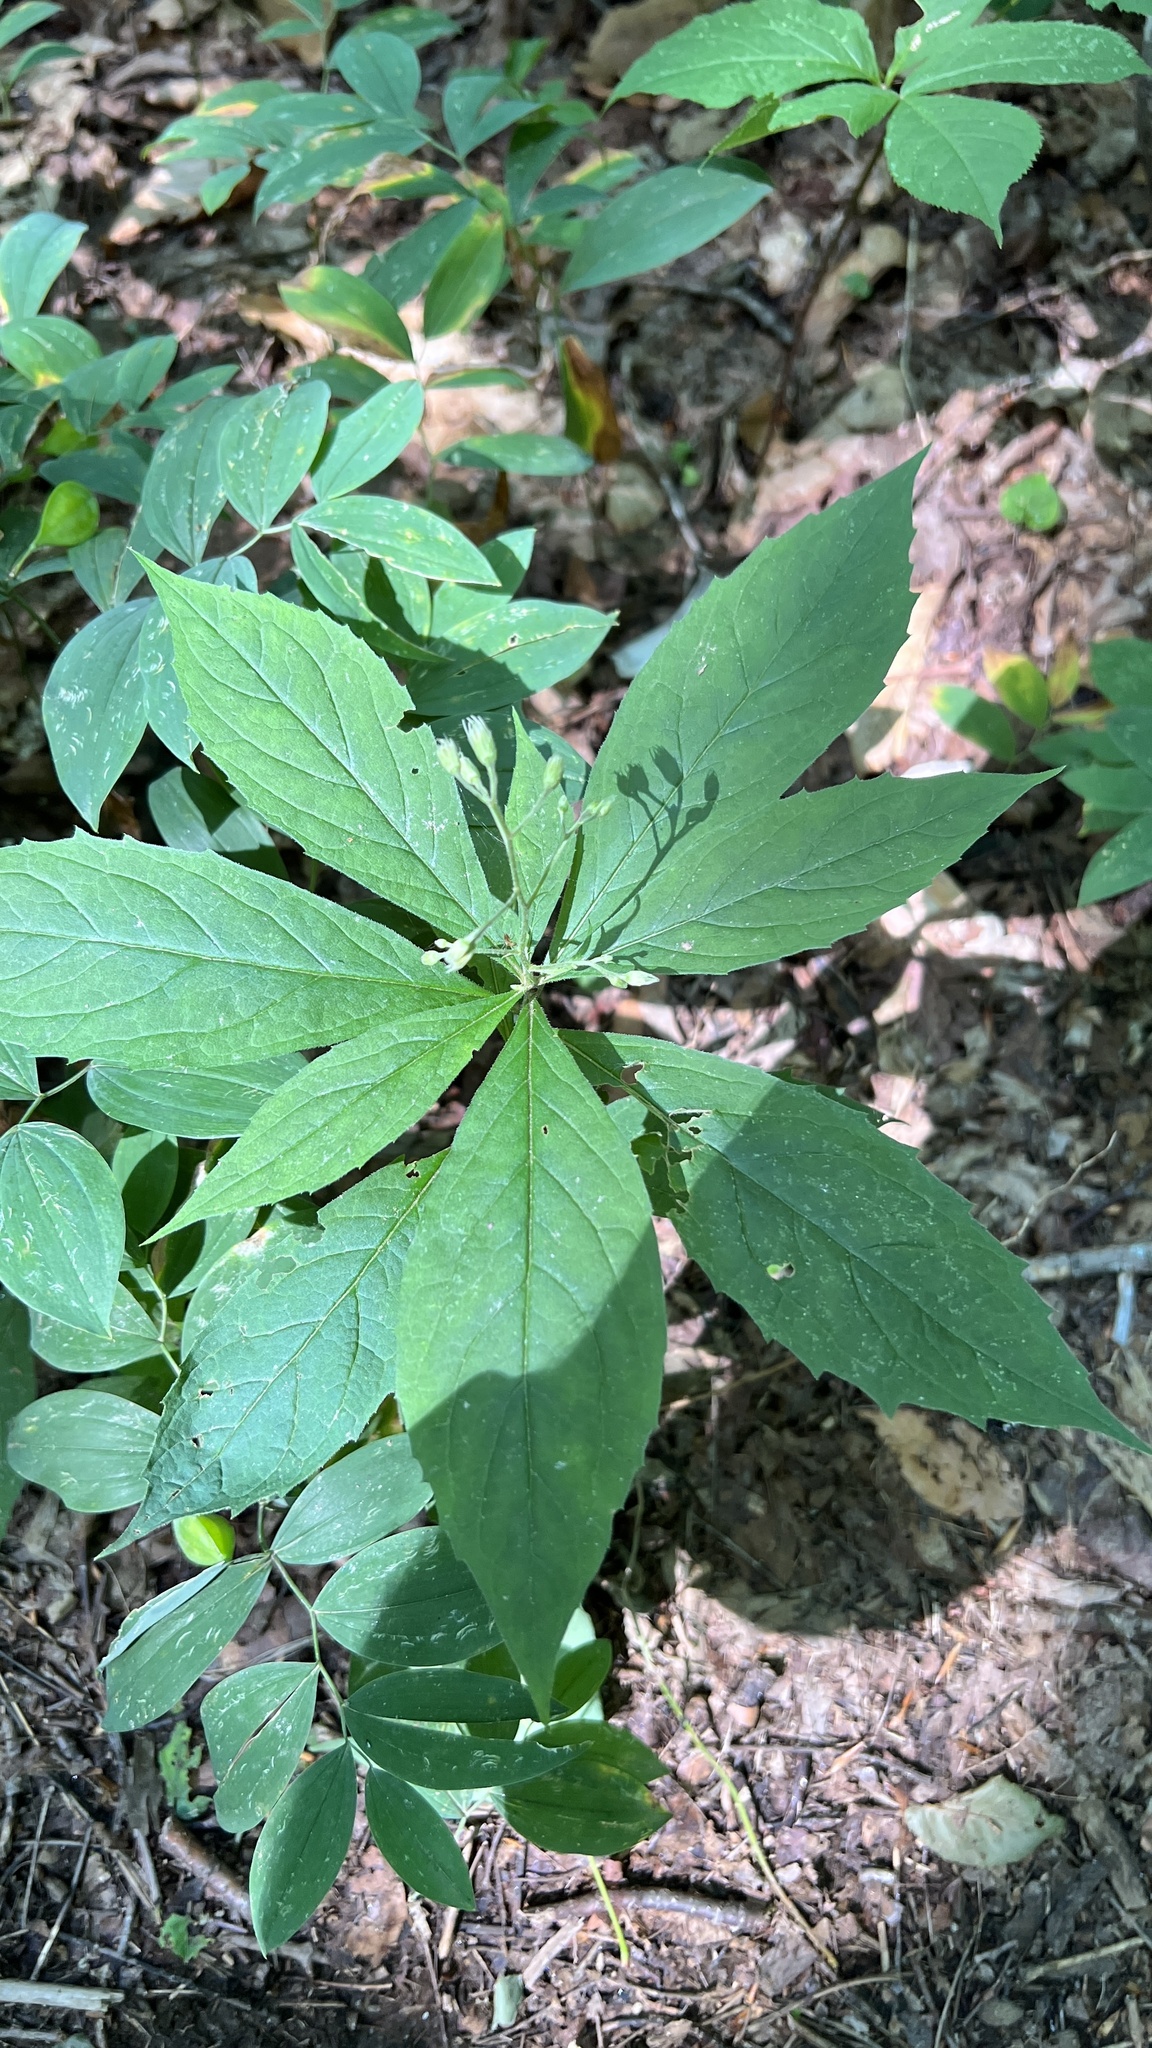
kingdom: Plantae
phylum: Tracheophyta
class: Magnoliopsida
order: Asterales
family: Asteraceae
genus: Oclemena
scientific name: Oclemena acuminata
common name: Mountain aster
